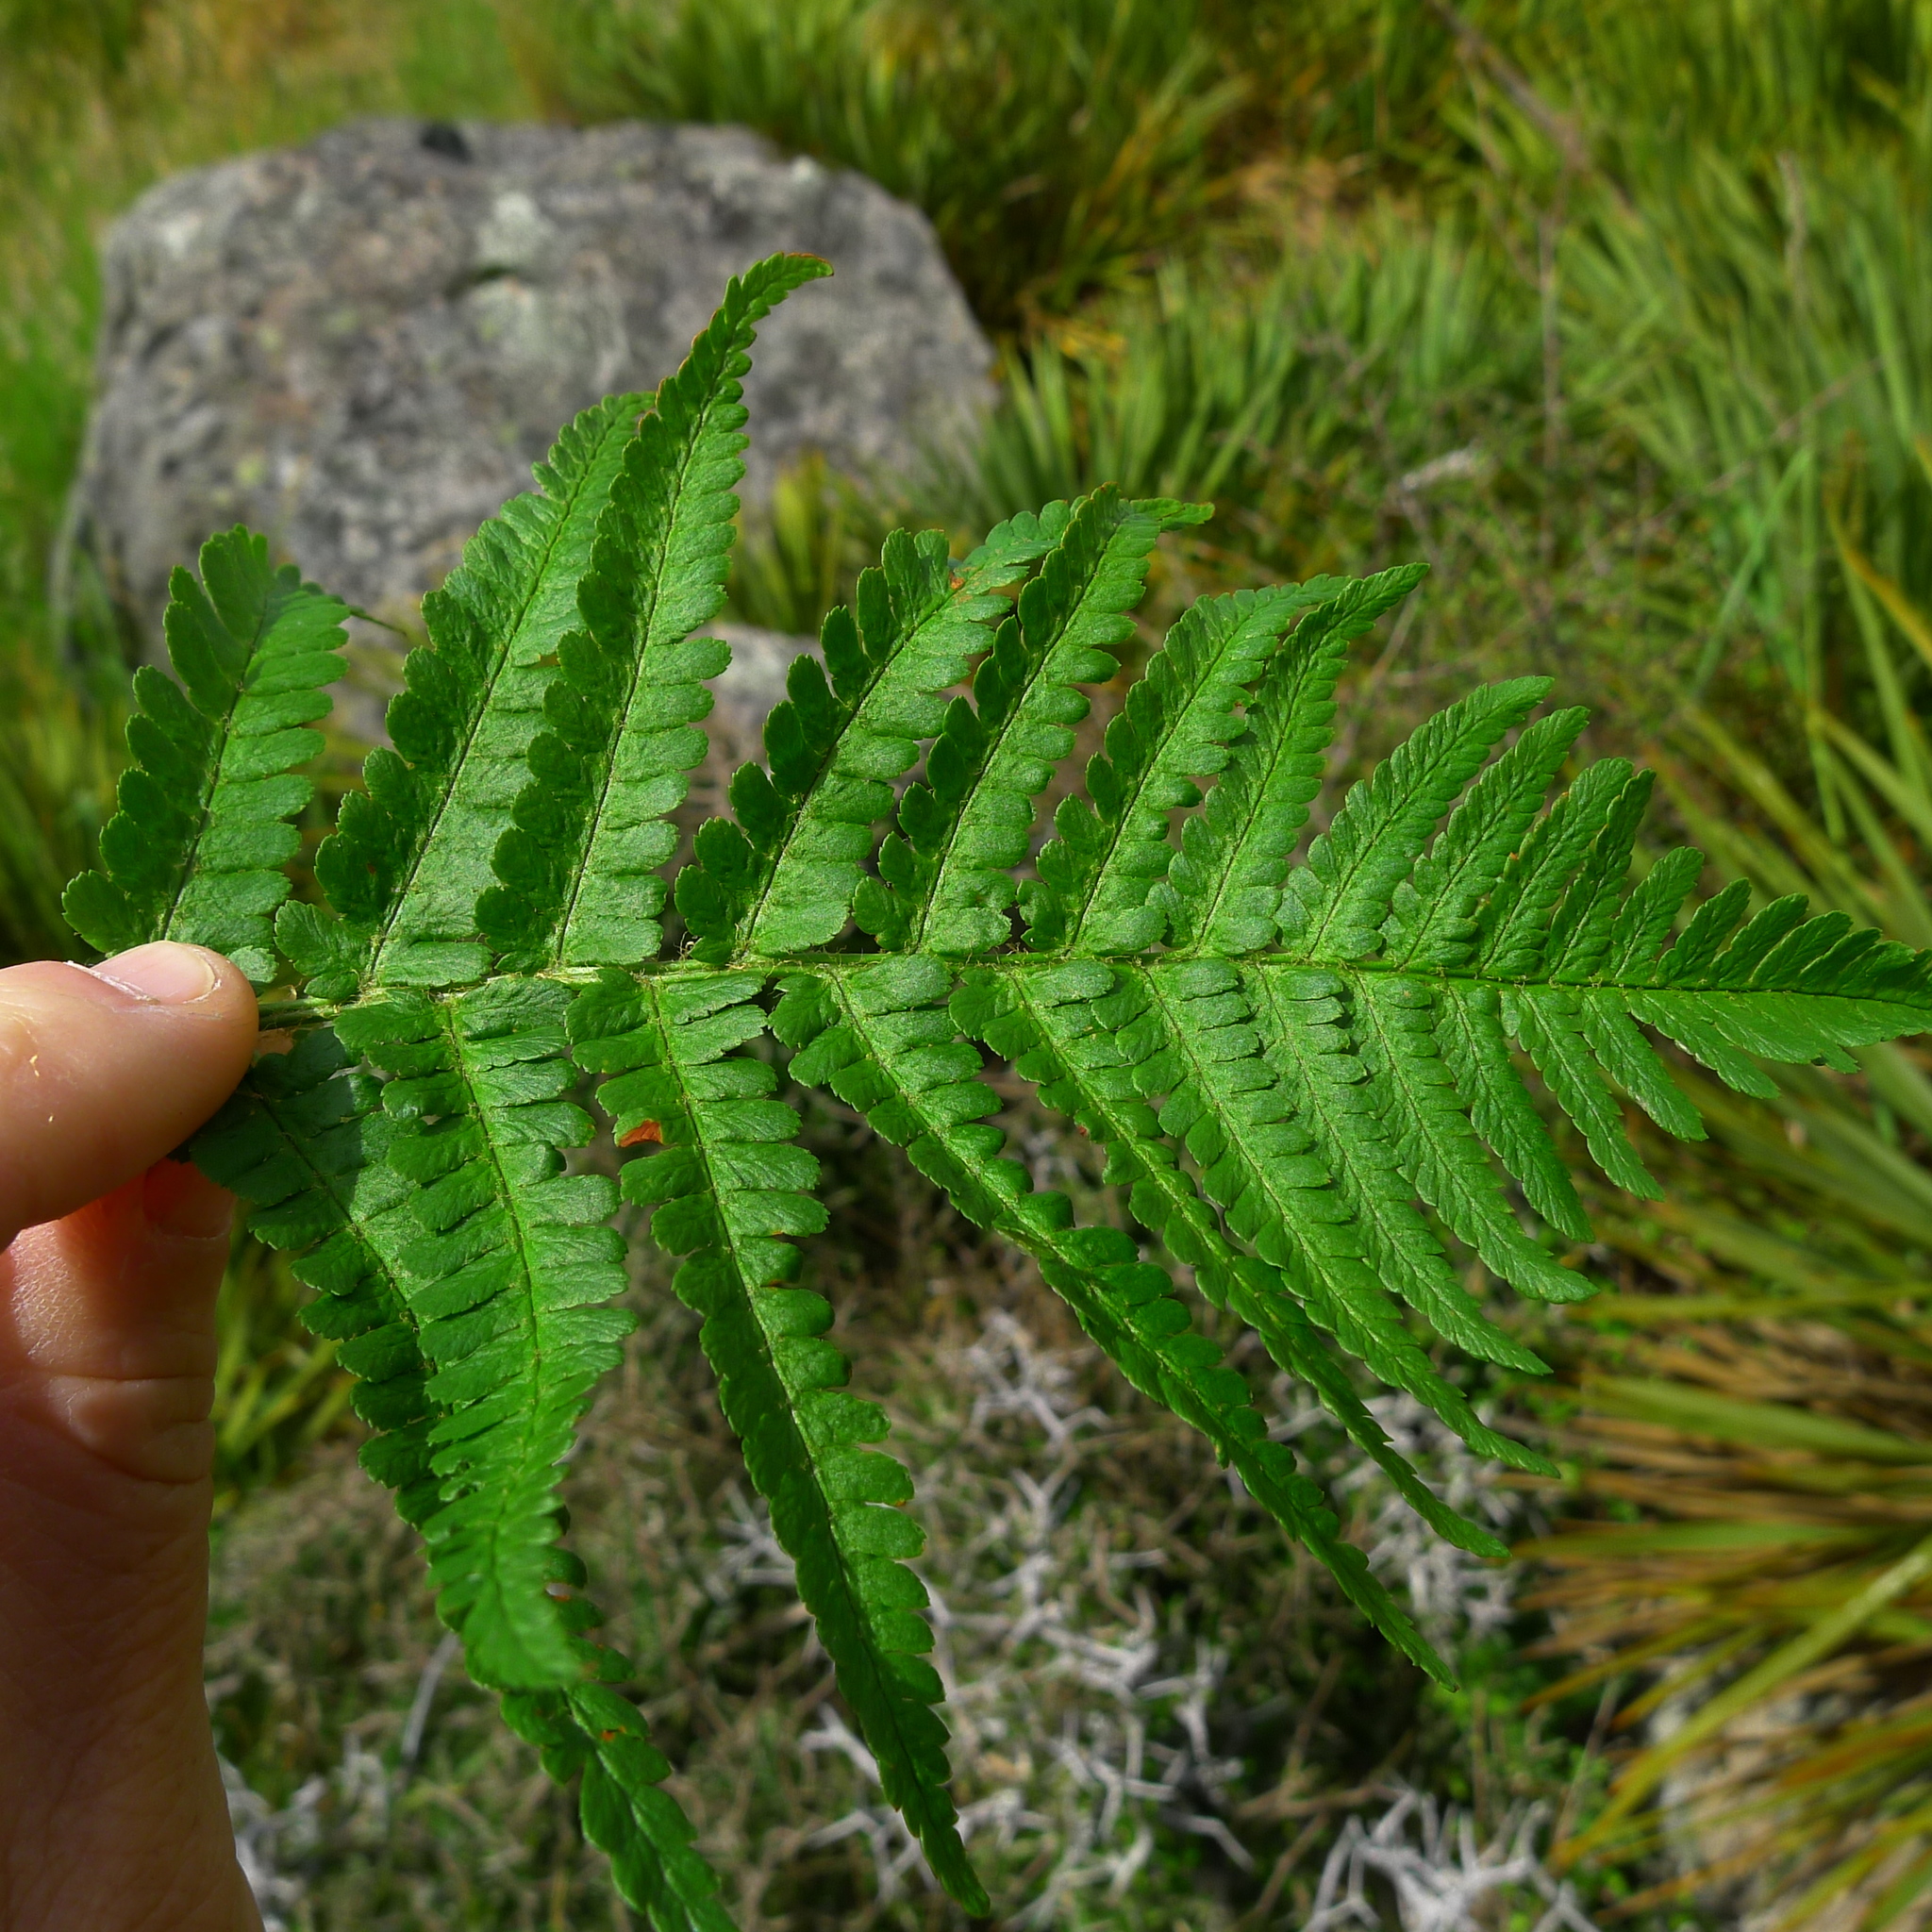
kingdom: Plantae
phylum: Tracheophyta
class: Polypodiopsida
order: Polypodiales
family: Dryopteridaceae
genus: Dryopteris
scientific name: Dryopteris filix-mas
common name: Male fern
